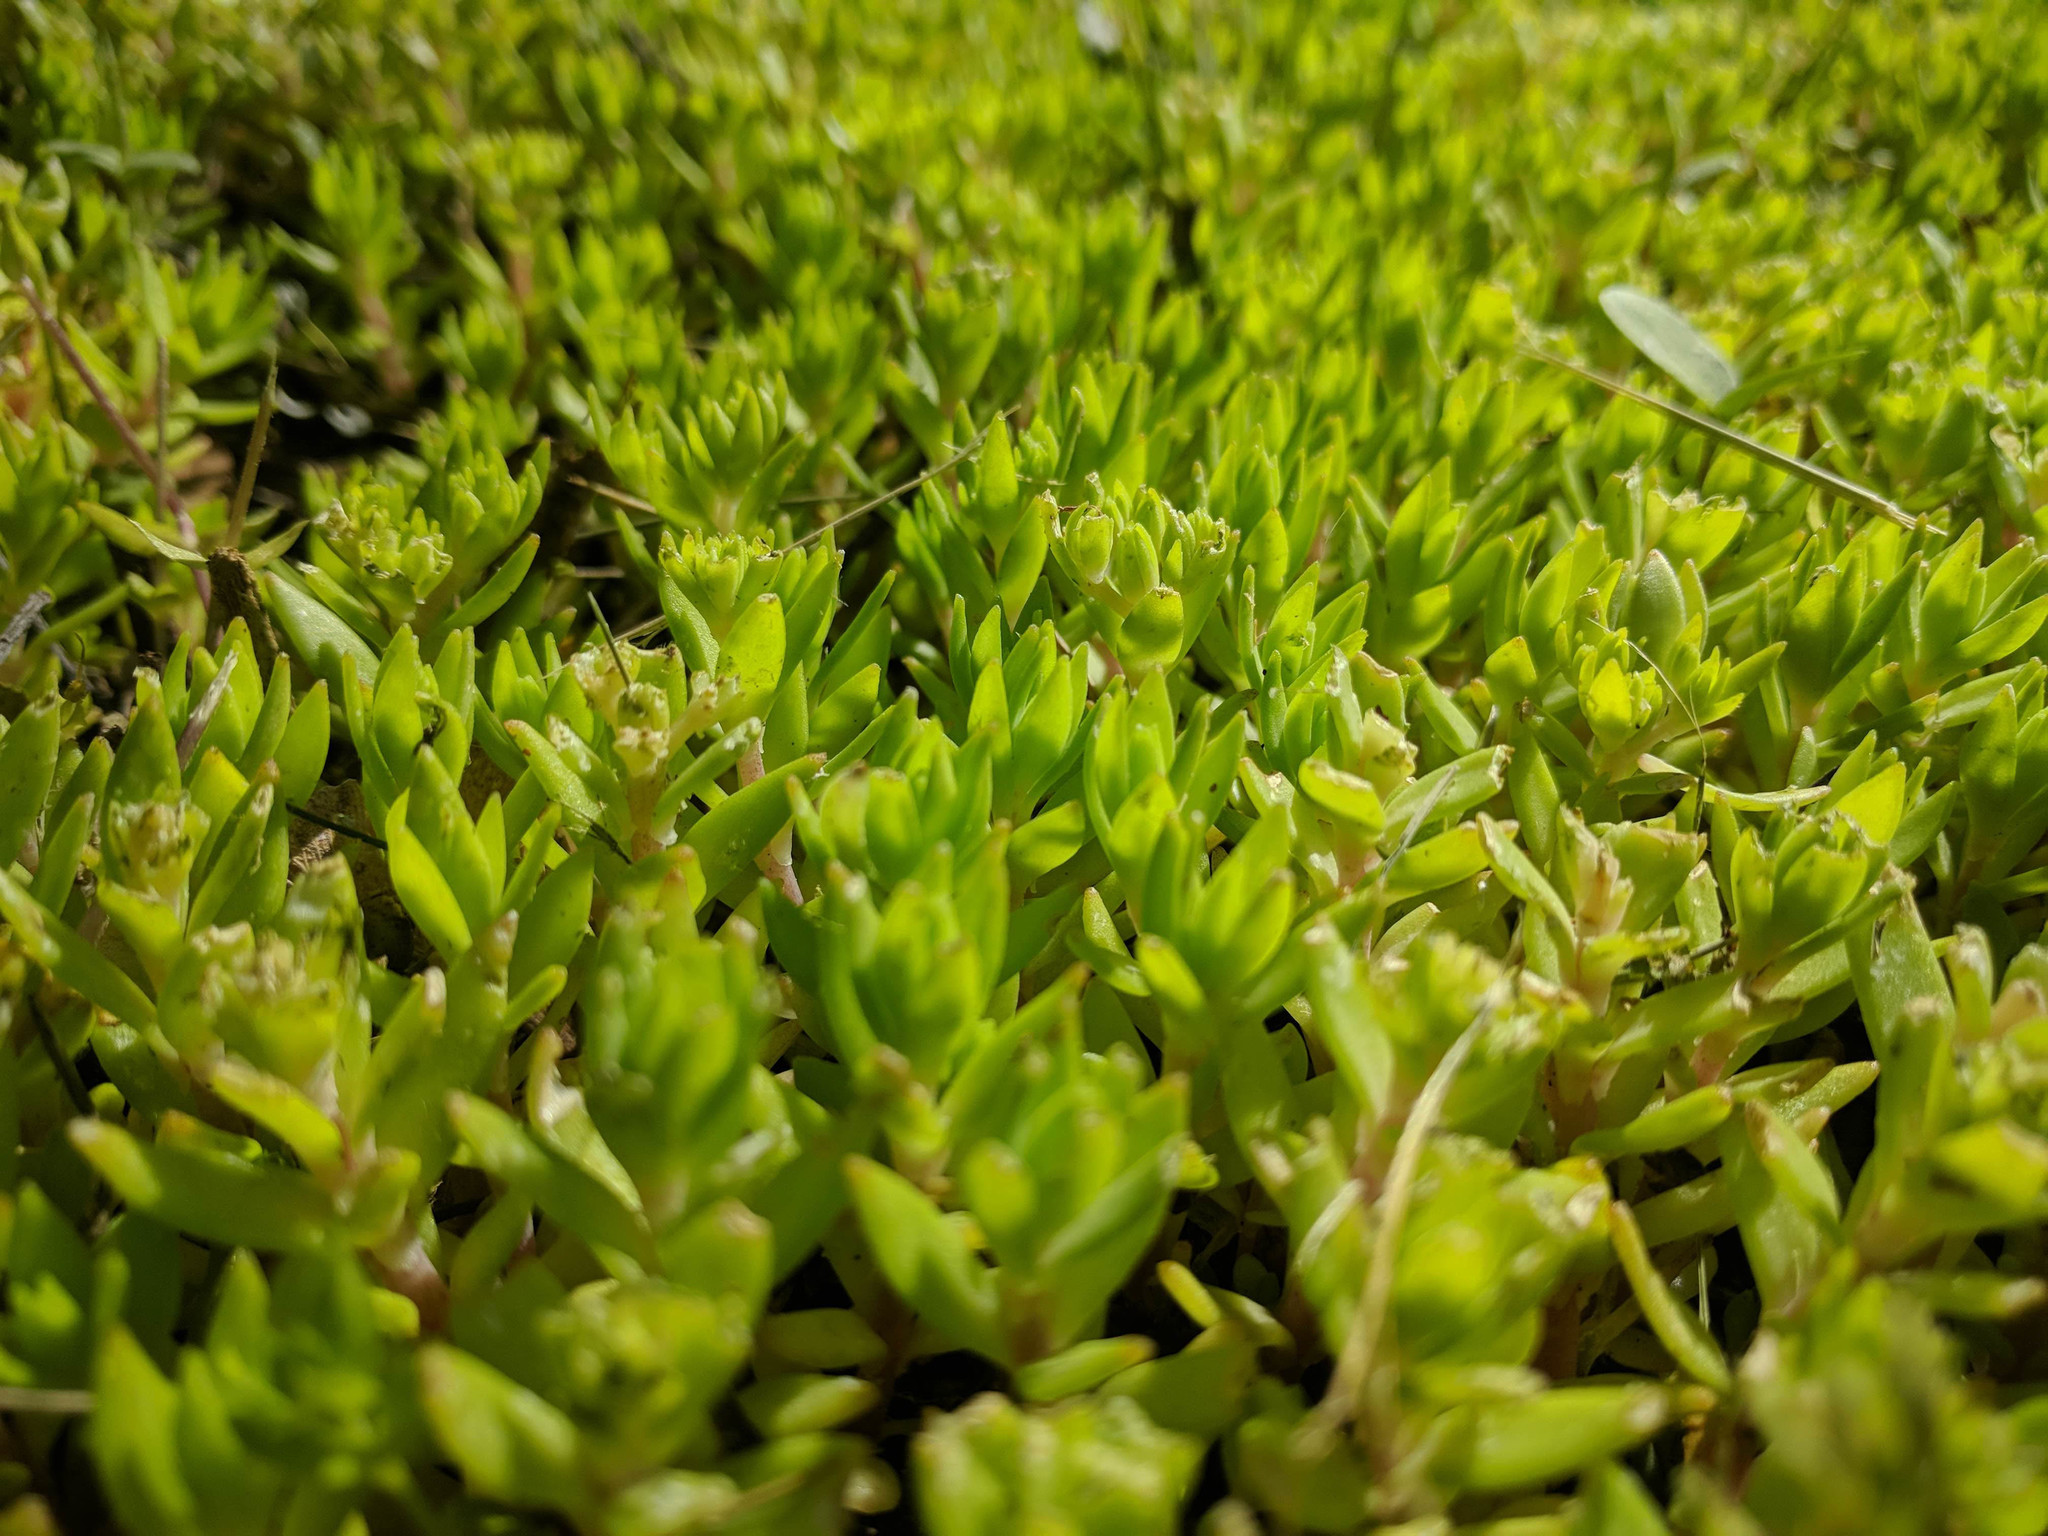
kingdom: Plantae
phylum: Tracheophyta
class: Magnoliopsida
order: Saxifragales
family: Crassulaceae
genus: Sedum
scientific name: Sedum sarmentosum
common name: Stringy stonecrop
